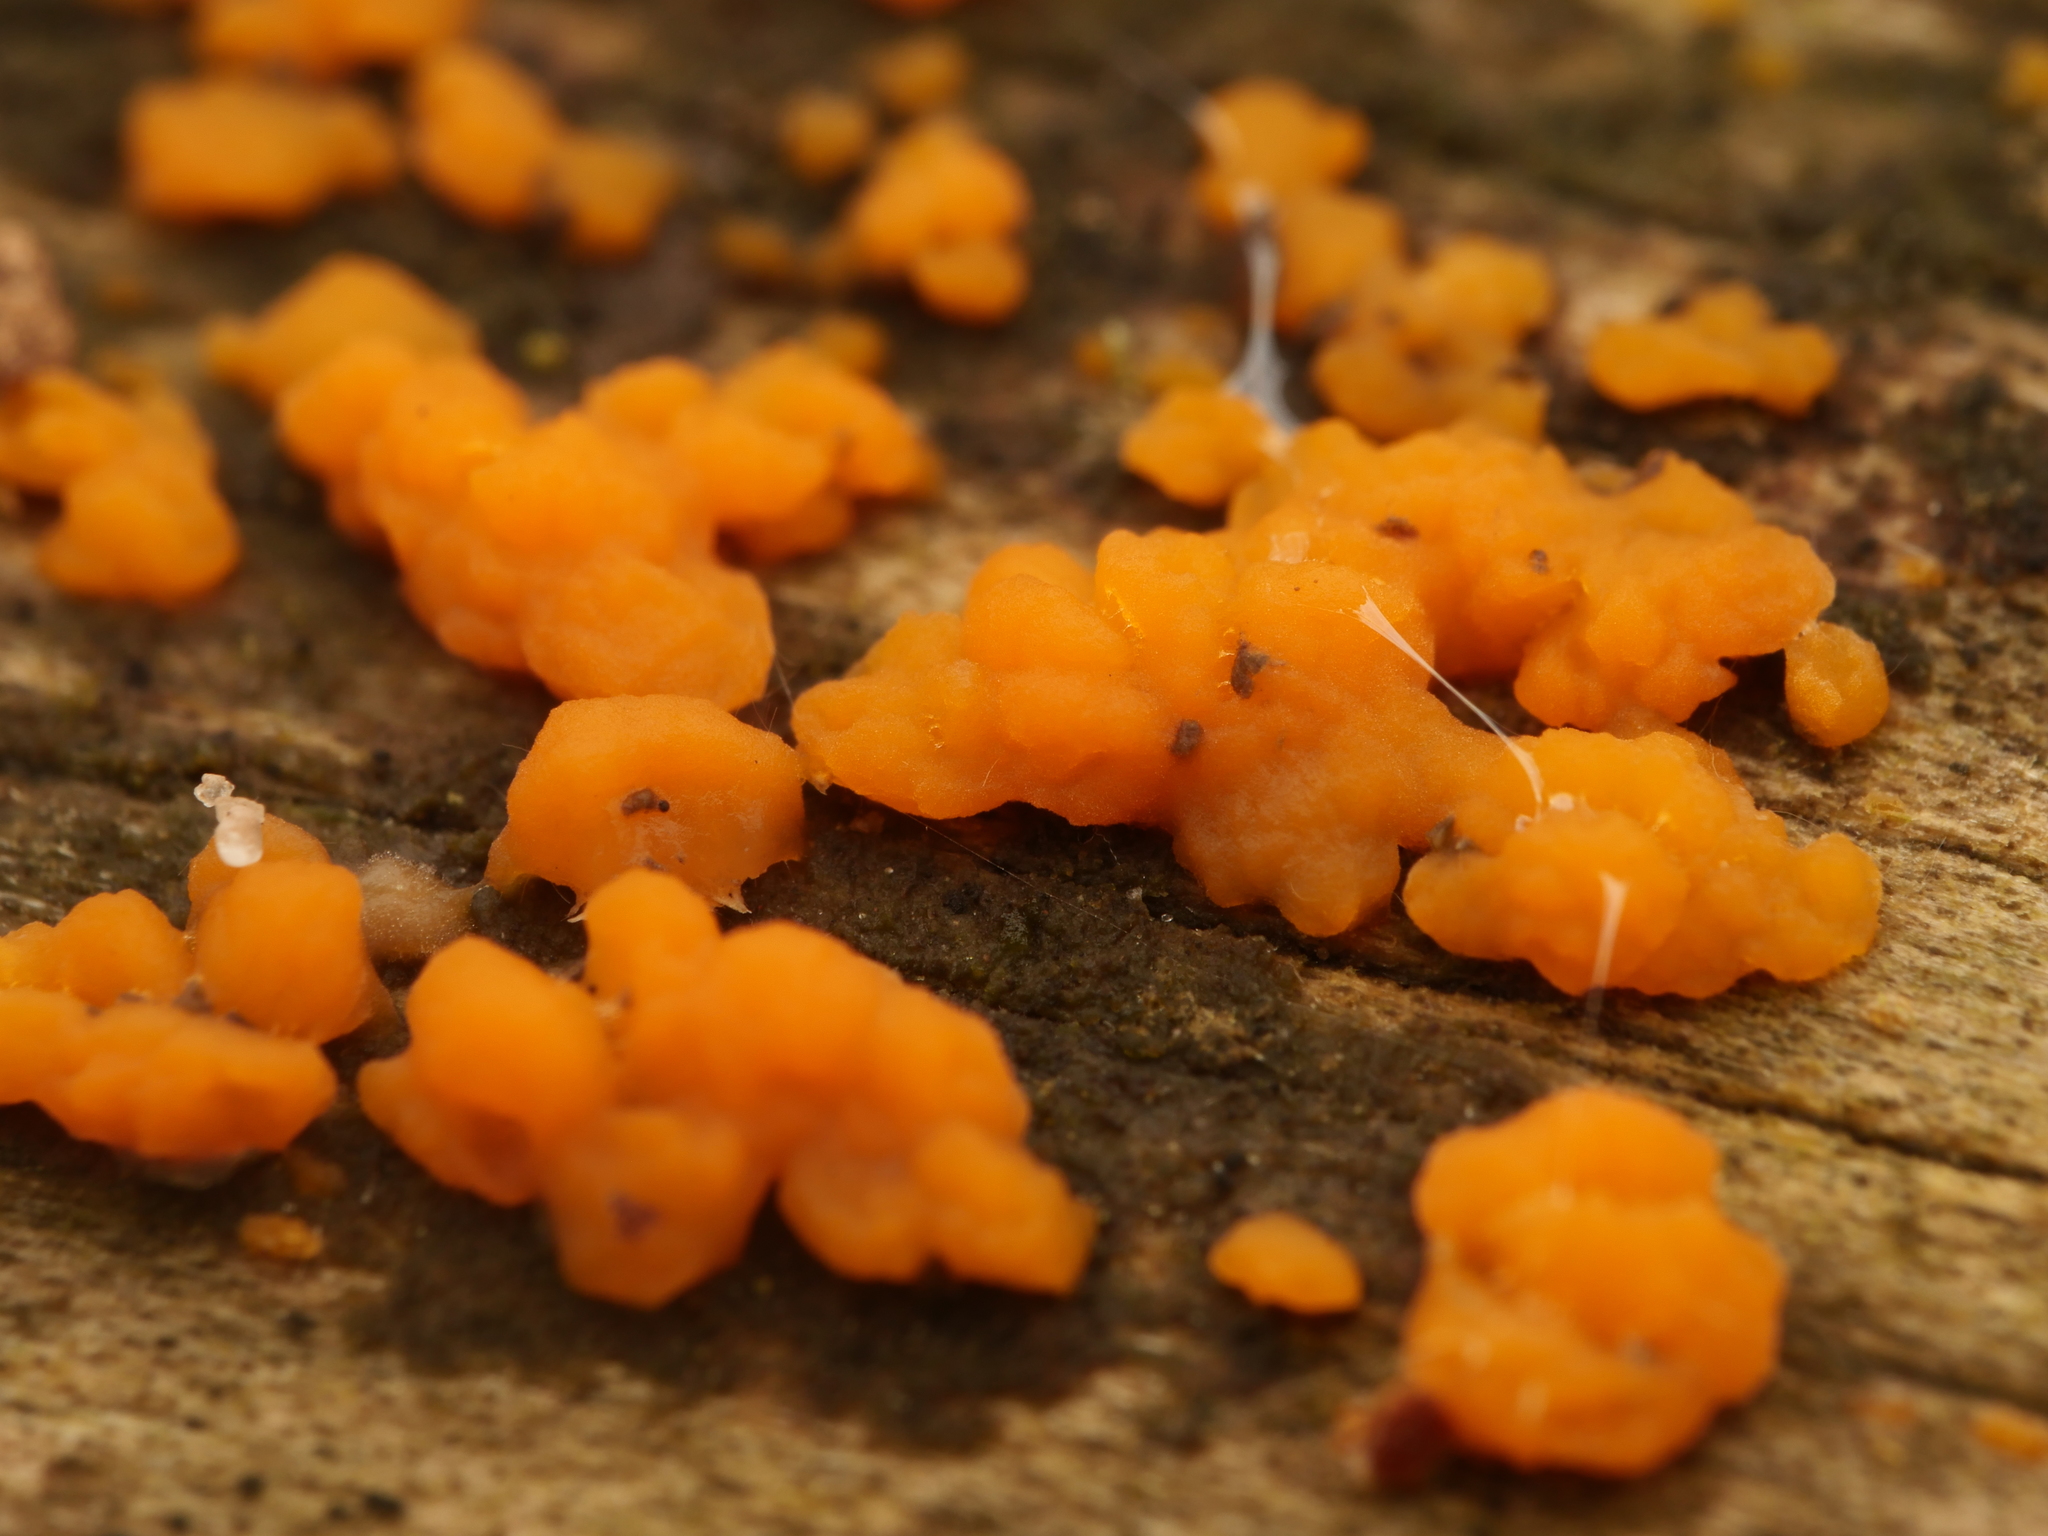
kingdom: Fungi
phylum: Basidiomycota
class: Dacrymycetes
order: Dacrymycetales
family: Dacrymycetaceae
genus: Dacrymyces
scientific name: Dacrymyces stillatus
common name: Common jelly spot
